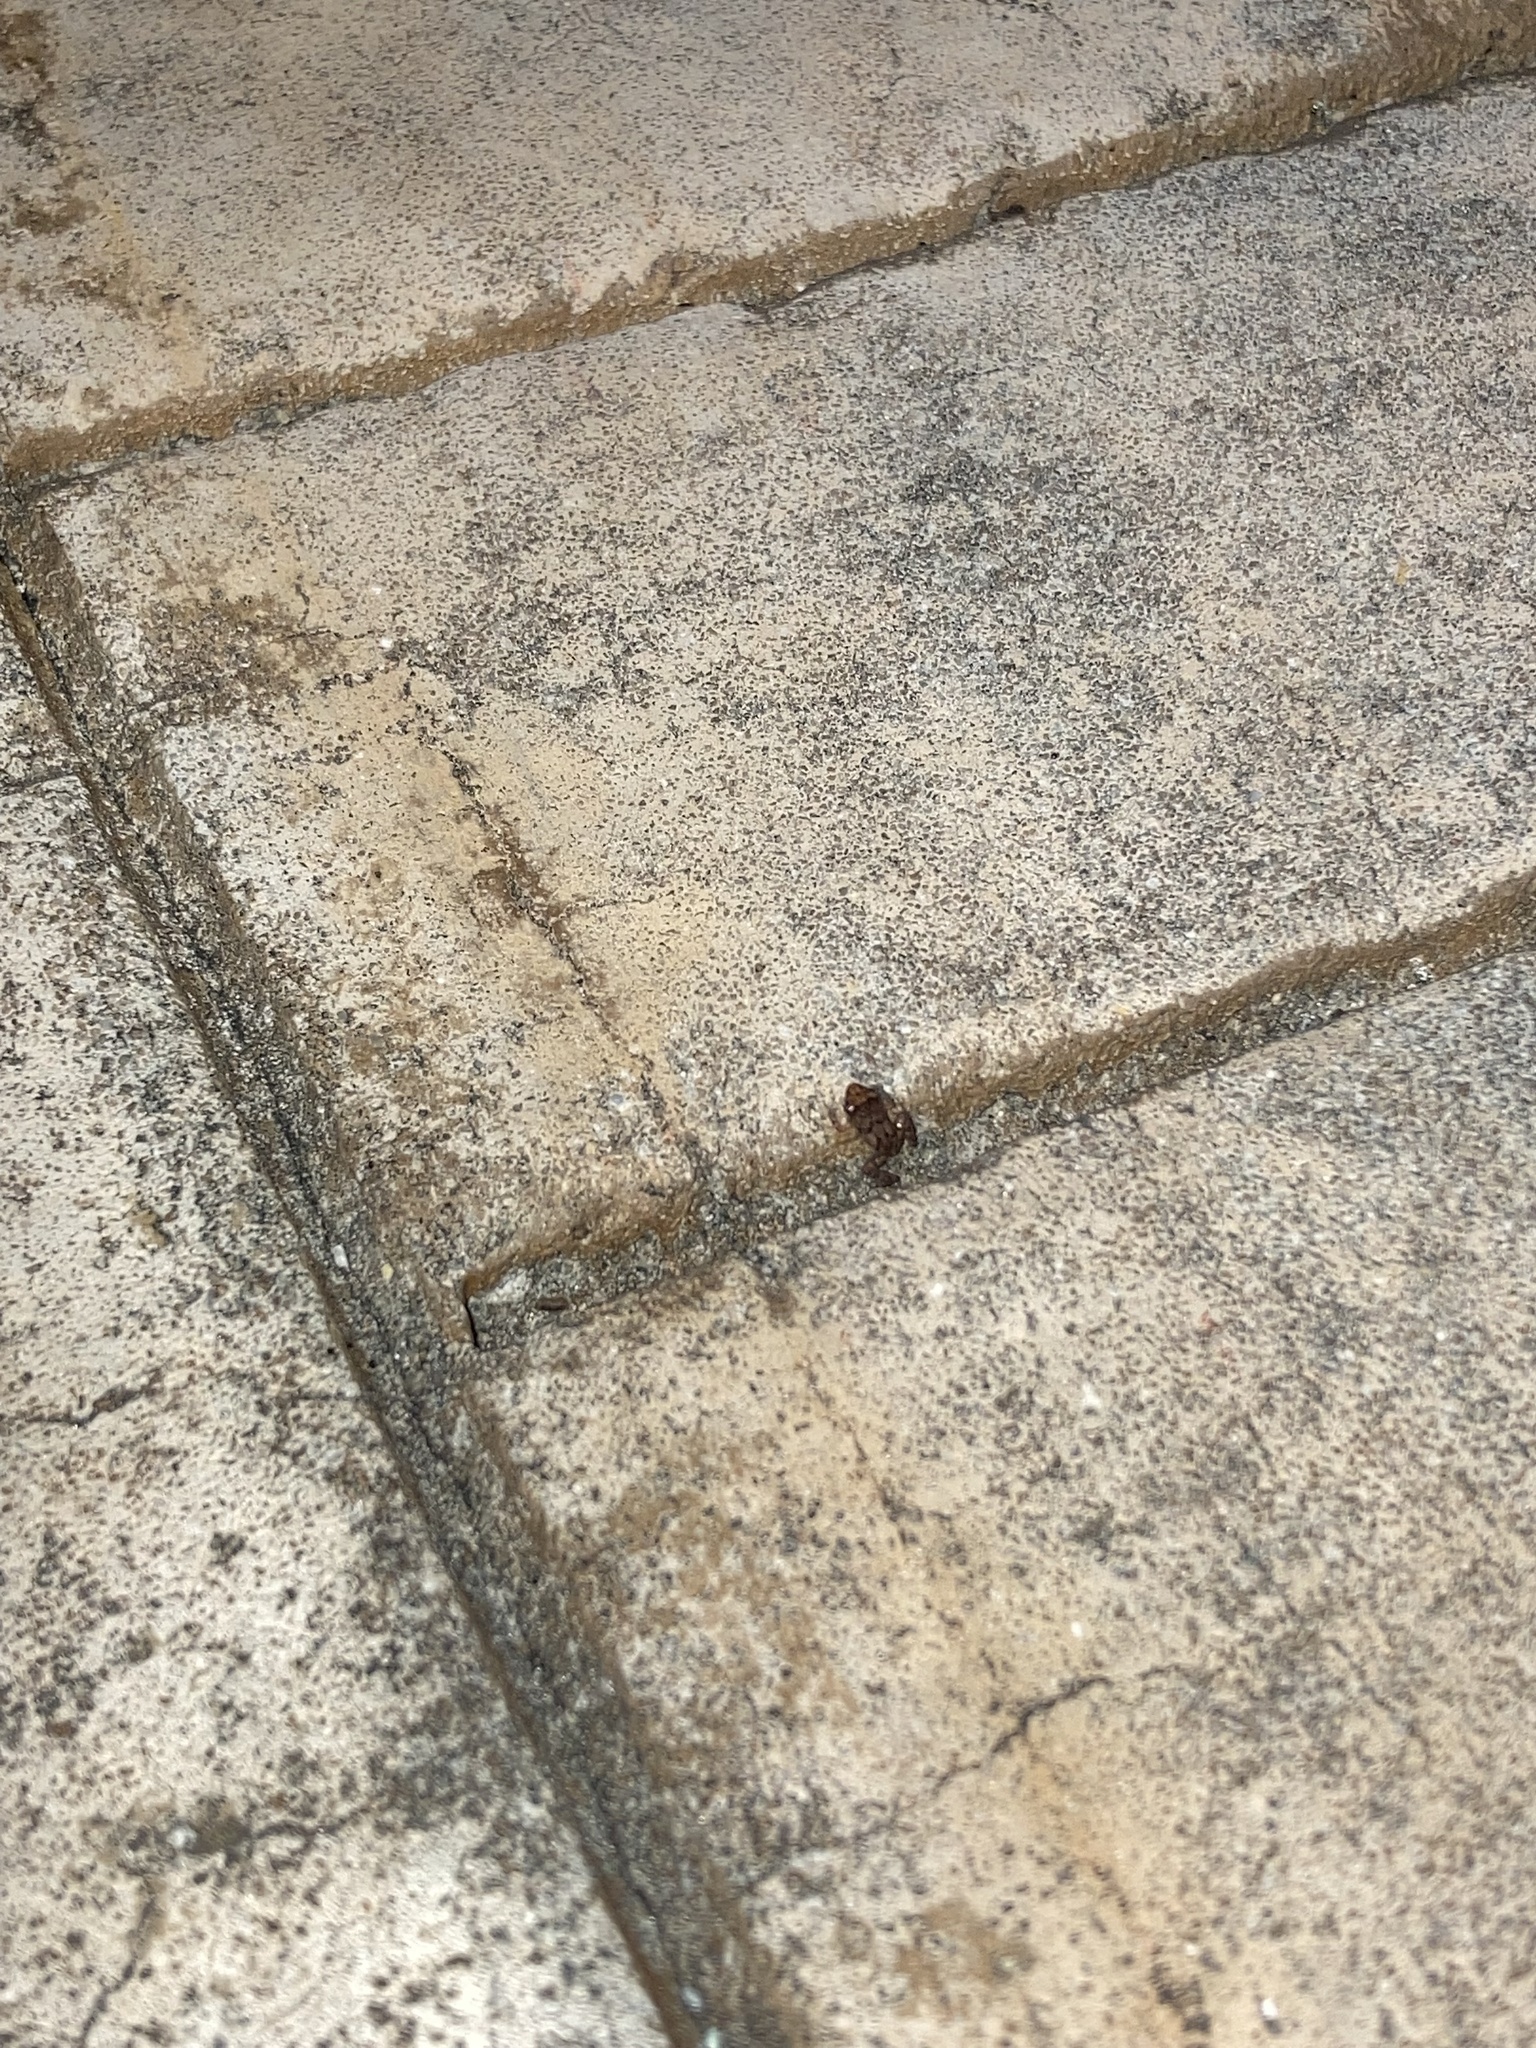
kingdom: Animalia
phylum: Chordata
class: Amphibia
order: Anura
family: Eleutherodactylidae
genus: Eleutherodactylus
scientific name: Eleutherodactylus planirostris
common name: Greenhouse frog
